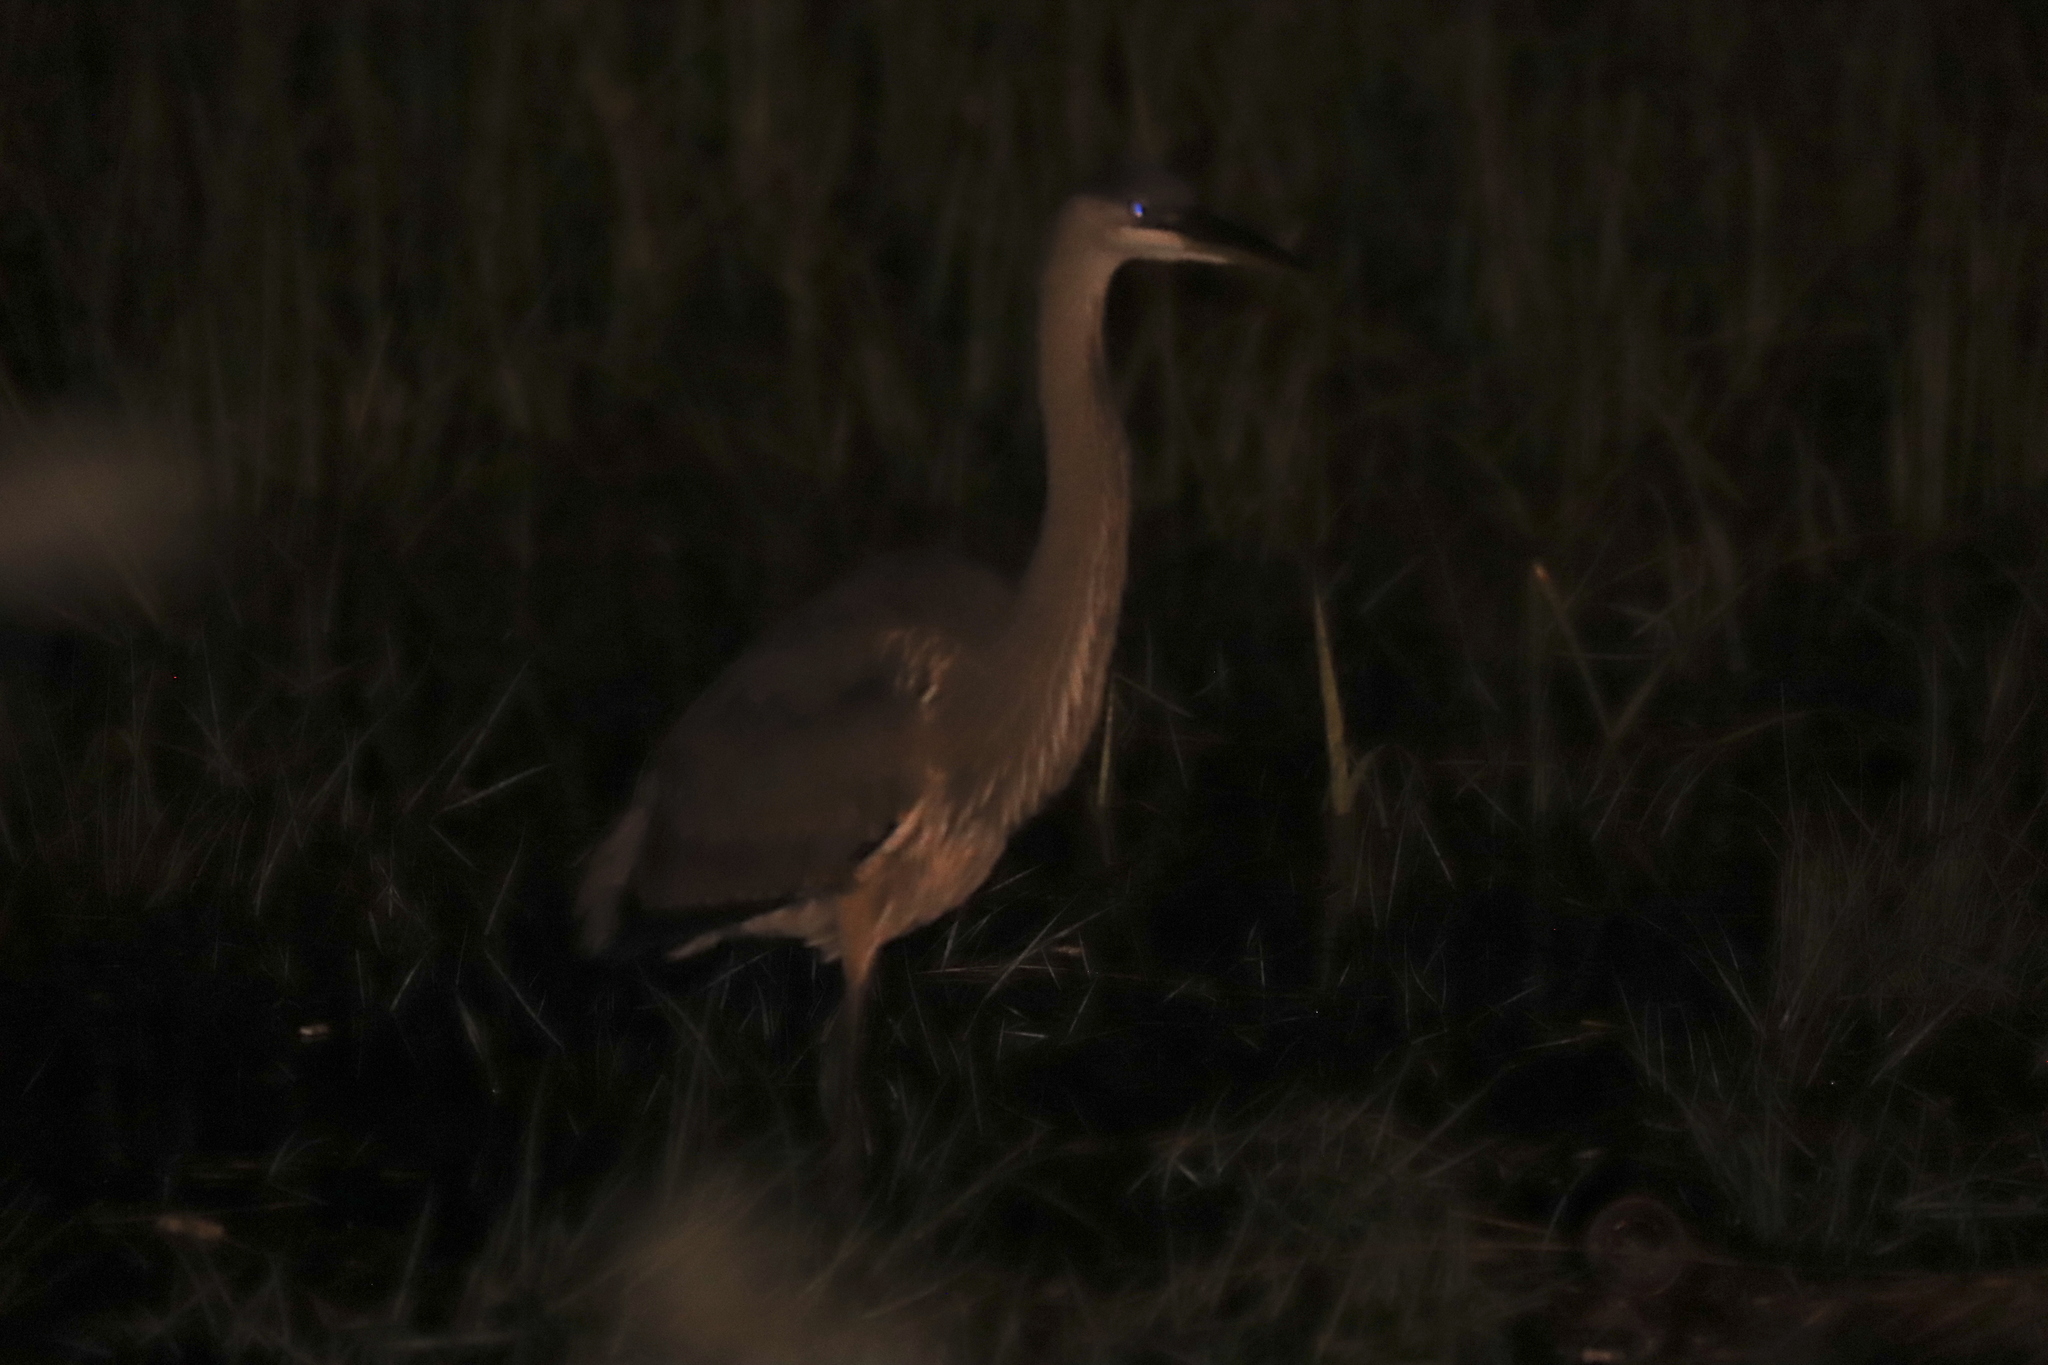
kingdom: Animalia
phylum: Chordata
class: Aves
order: Pelecaniformes
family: Ardeidae
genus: Ardea
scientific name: Ardea herodias
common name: Great blue heron
